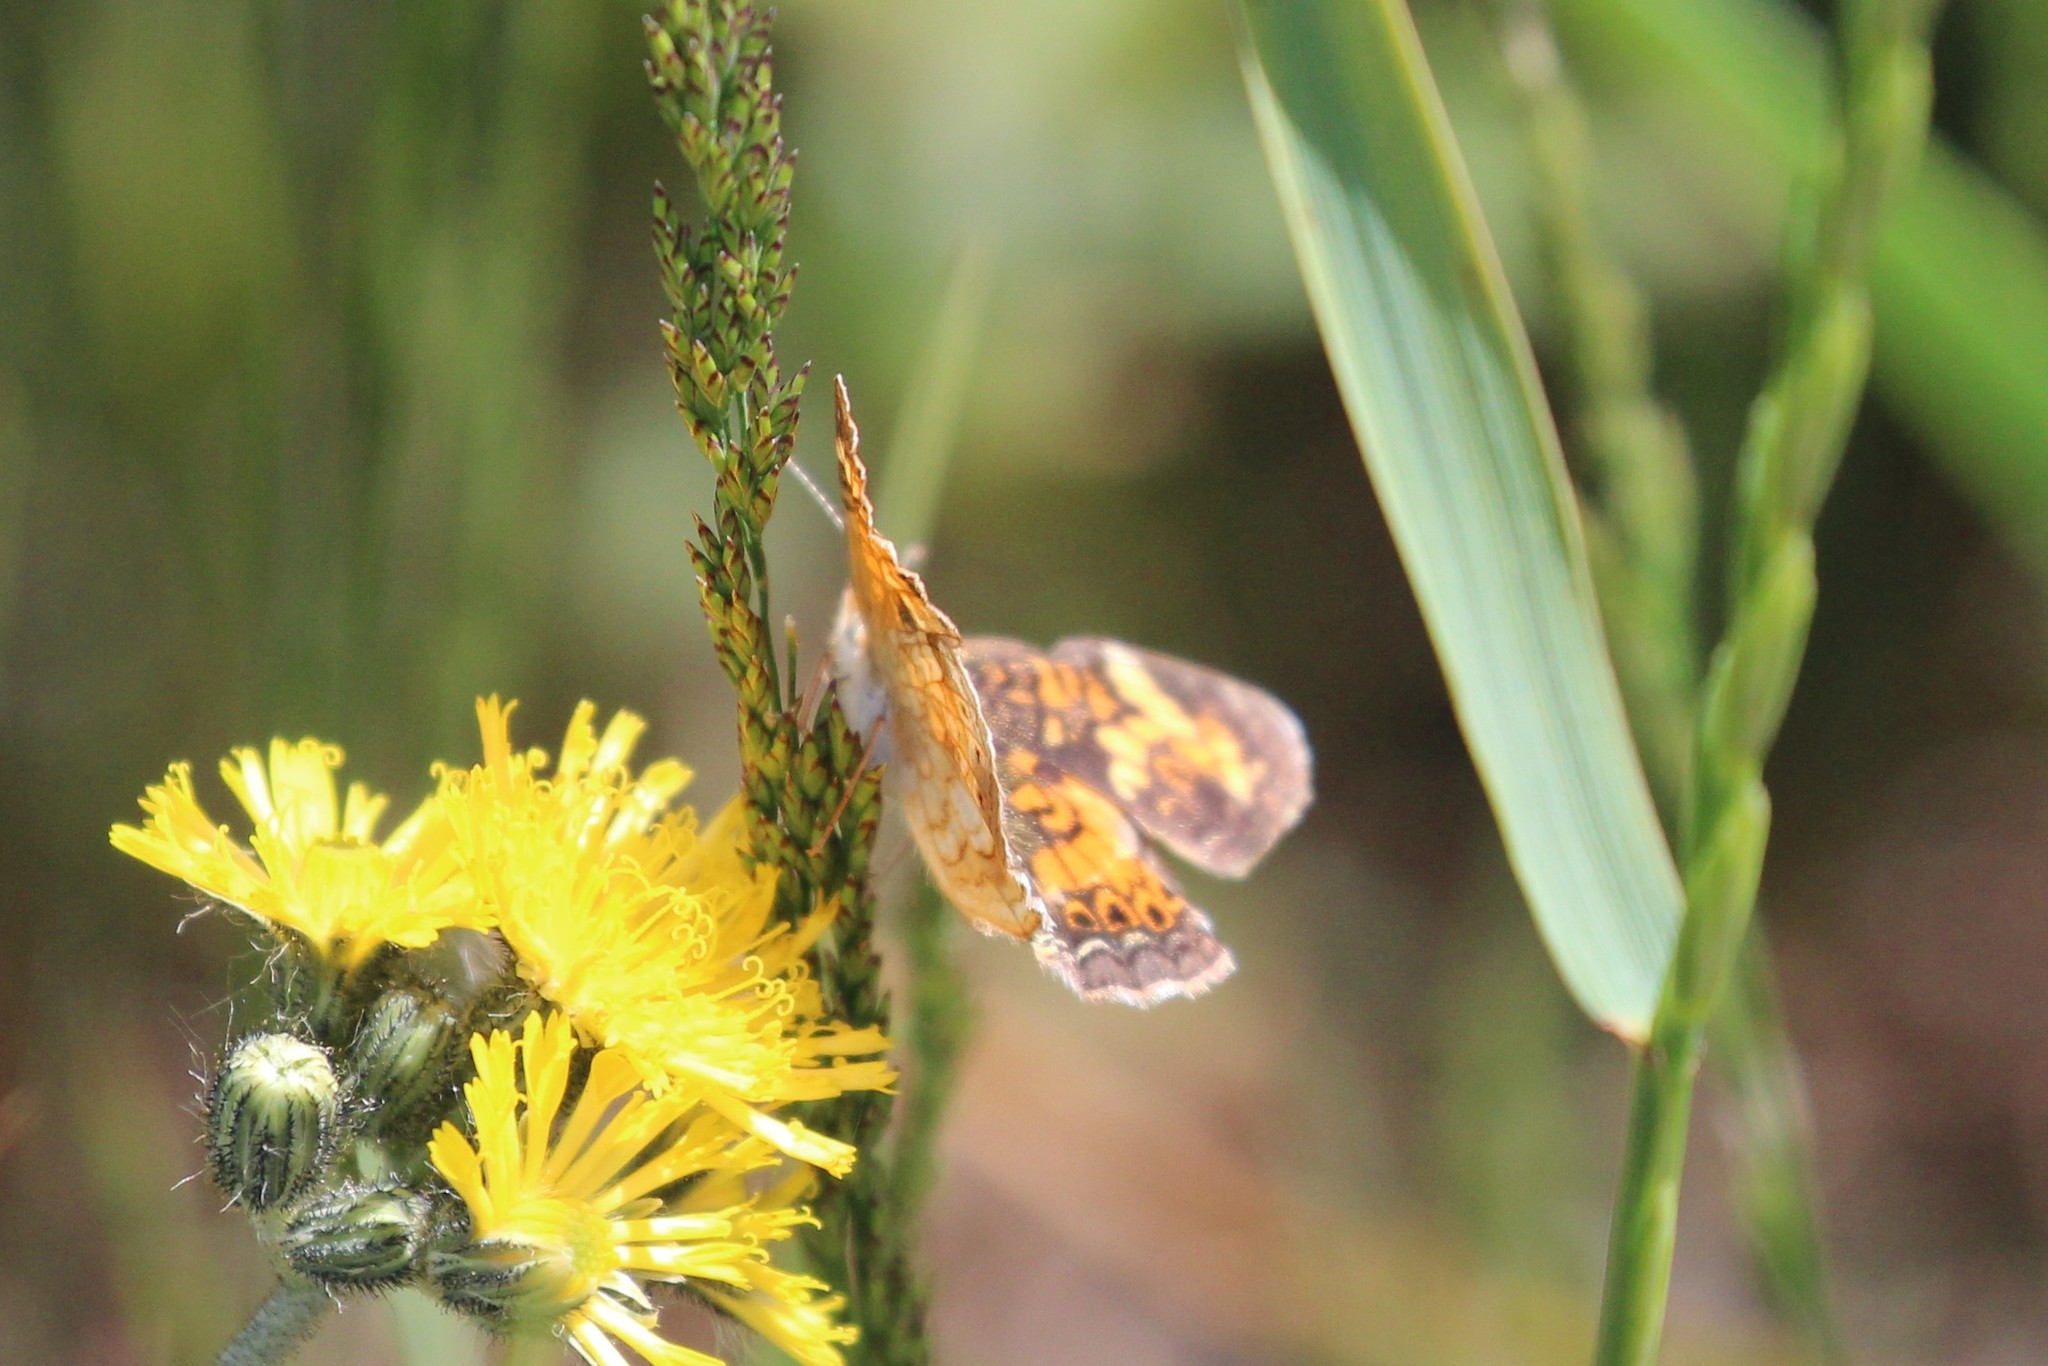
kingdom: Animalia
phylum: Arthropoda
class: Insecta
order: Lepidoptera
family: Nymphalidae
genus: Phyciodes
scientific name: Phyciodes tharos
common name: Pearl crescent
